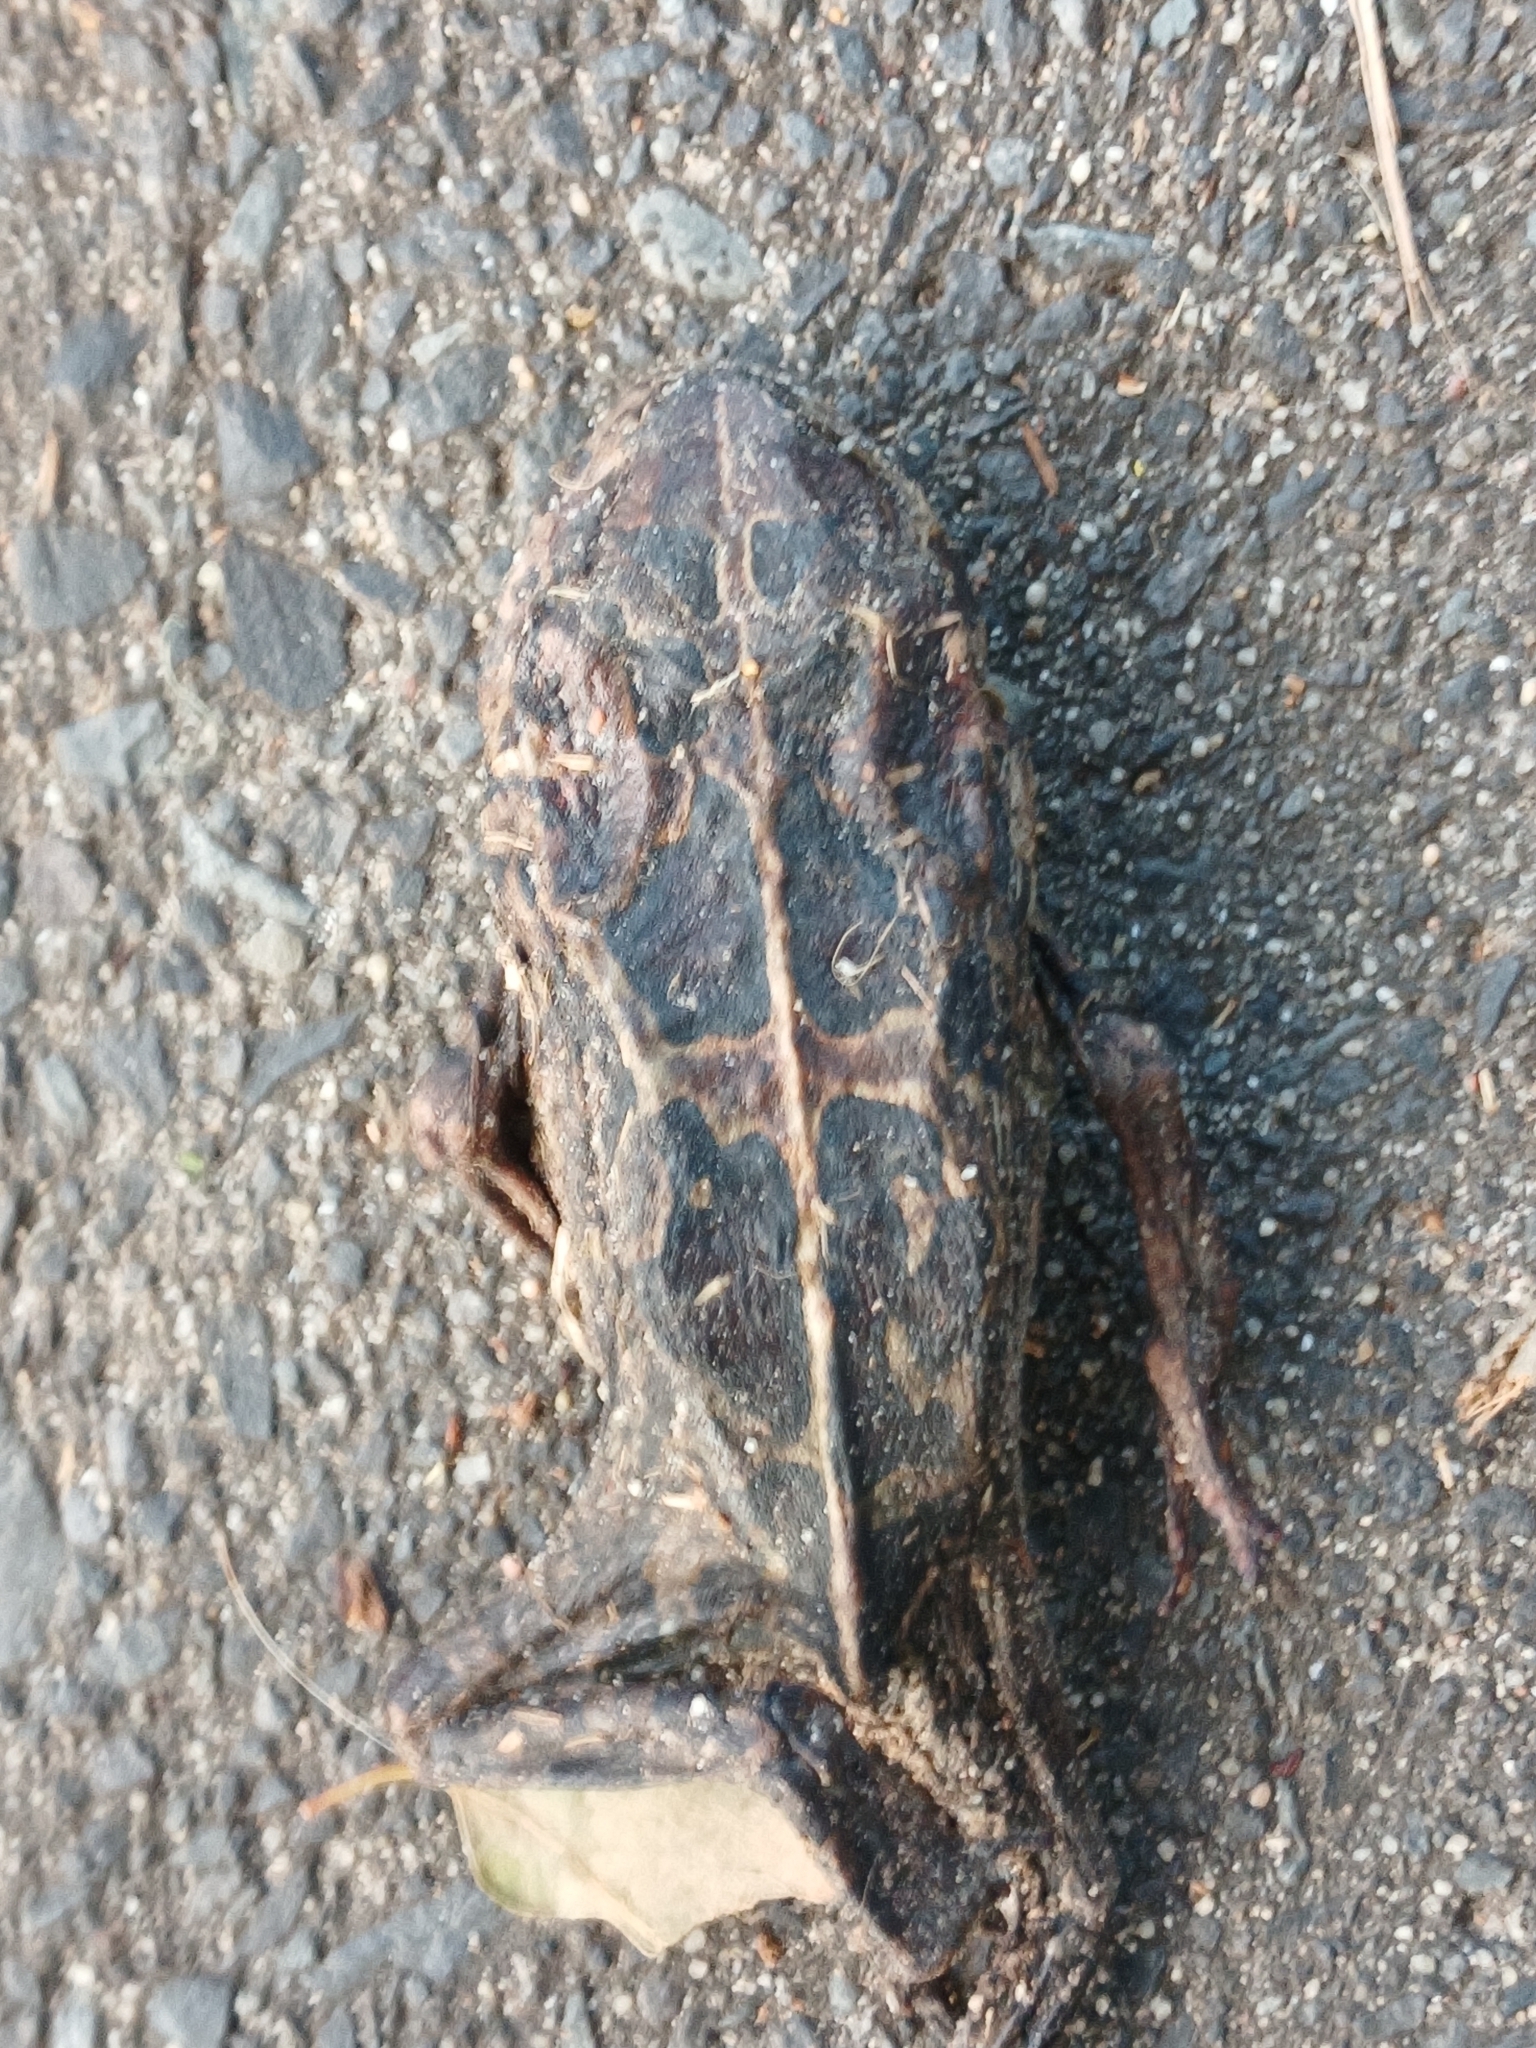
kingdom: Animalia
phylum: Chordata
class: Amphibia
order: Anura
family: Bufonidae
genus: Sclerophrys
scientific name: Sclerophrys pantherina
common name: Panther toad
